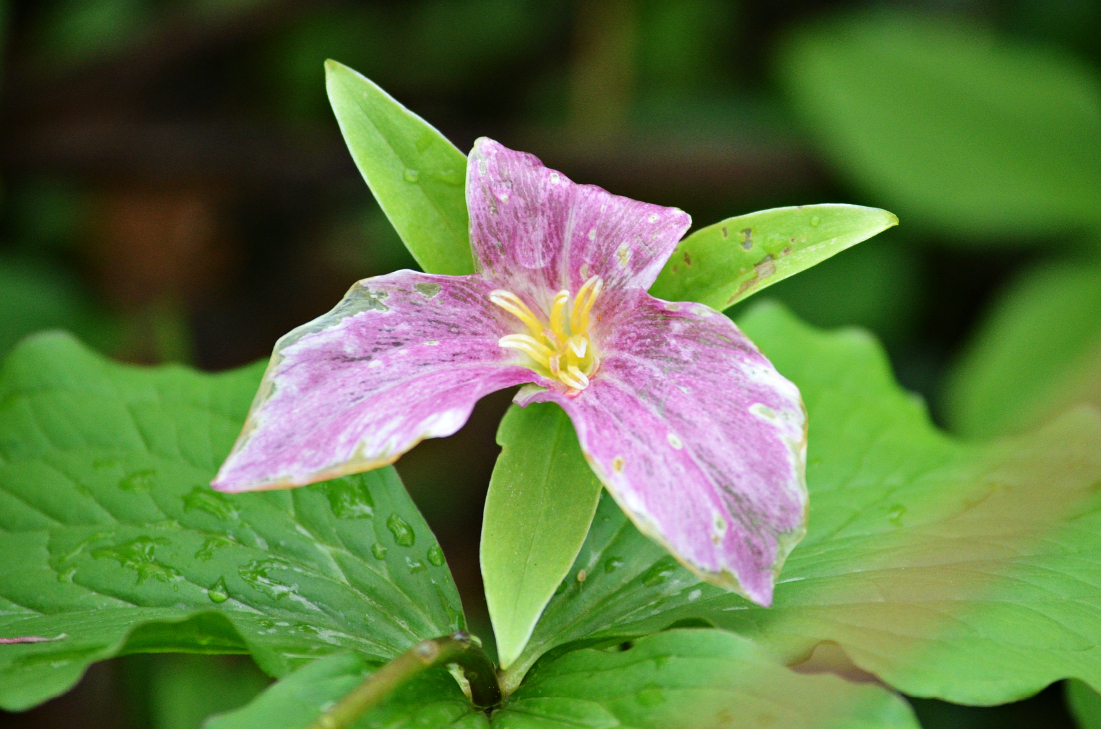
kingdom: Plantae
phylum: Tracheophyta
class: Liliopsida
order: Liliales
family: Melanthiaceae
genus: Trillium
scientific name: Trillium grandiflorum
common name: Great white trillium
